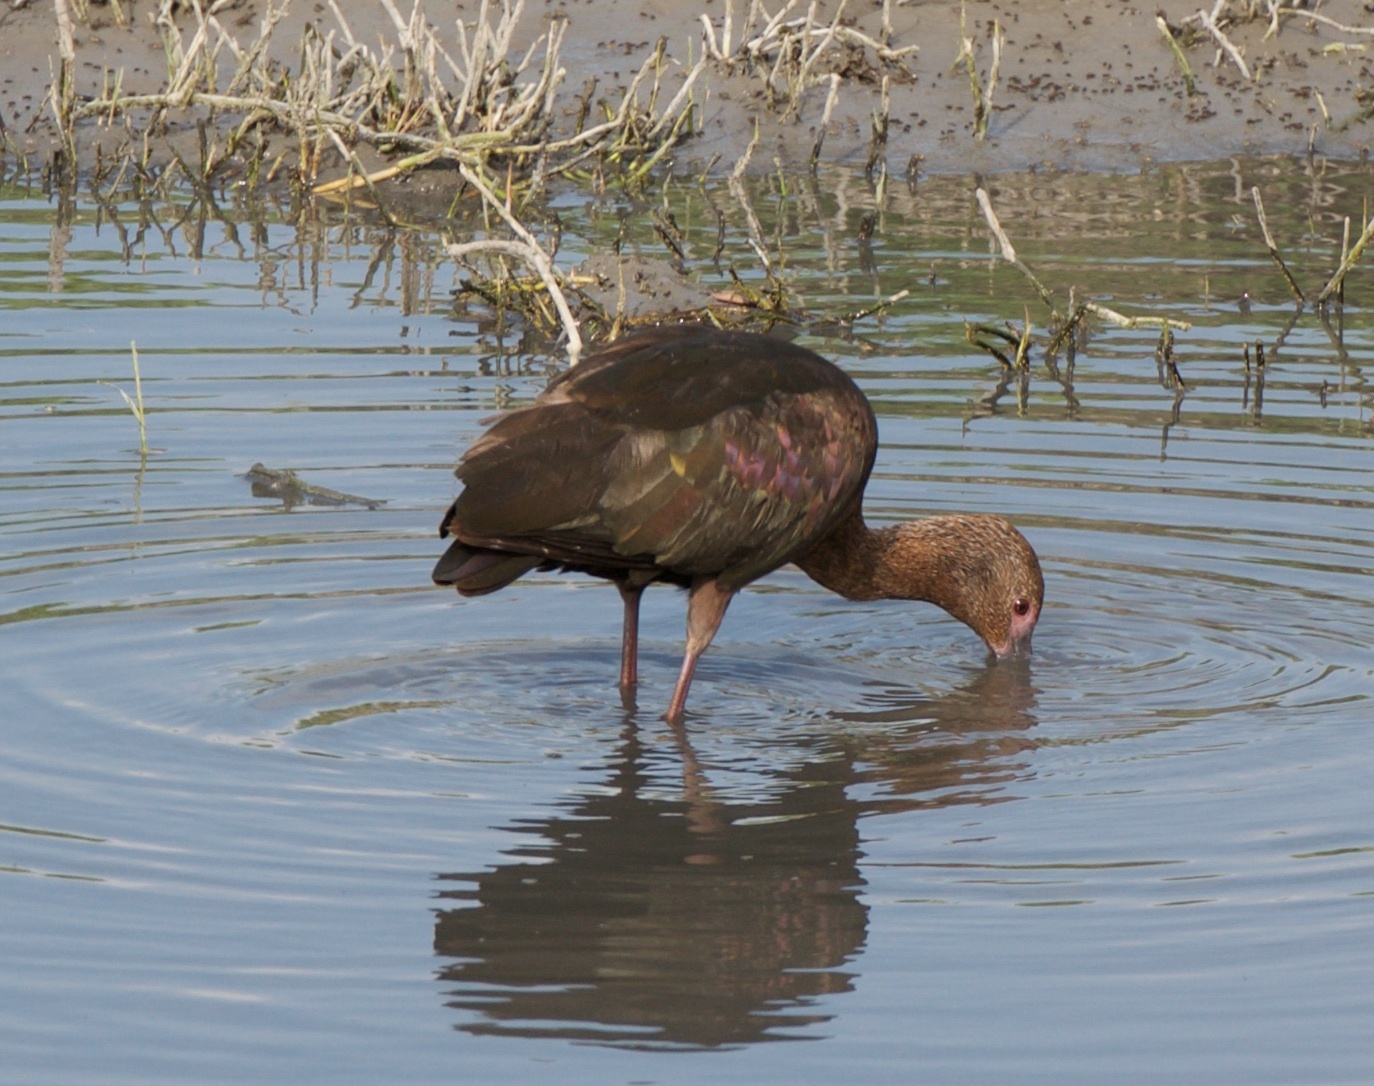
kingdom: Animalia
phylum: Chordata
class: Aves
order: Pelecaniformes
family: Threskiornithidae
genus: Plegadis
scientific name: Plegadis chihi
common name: White-faced ibis
